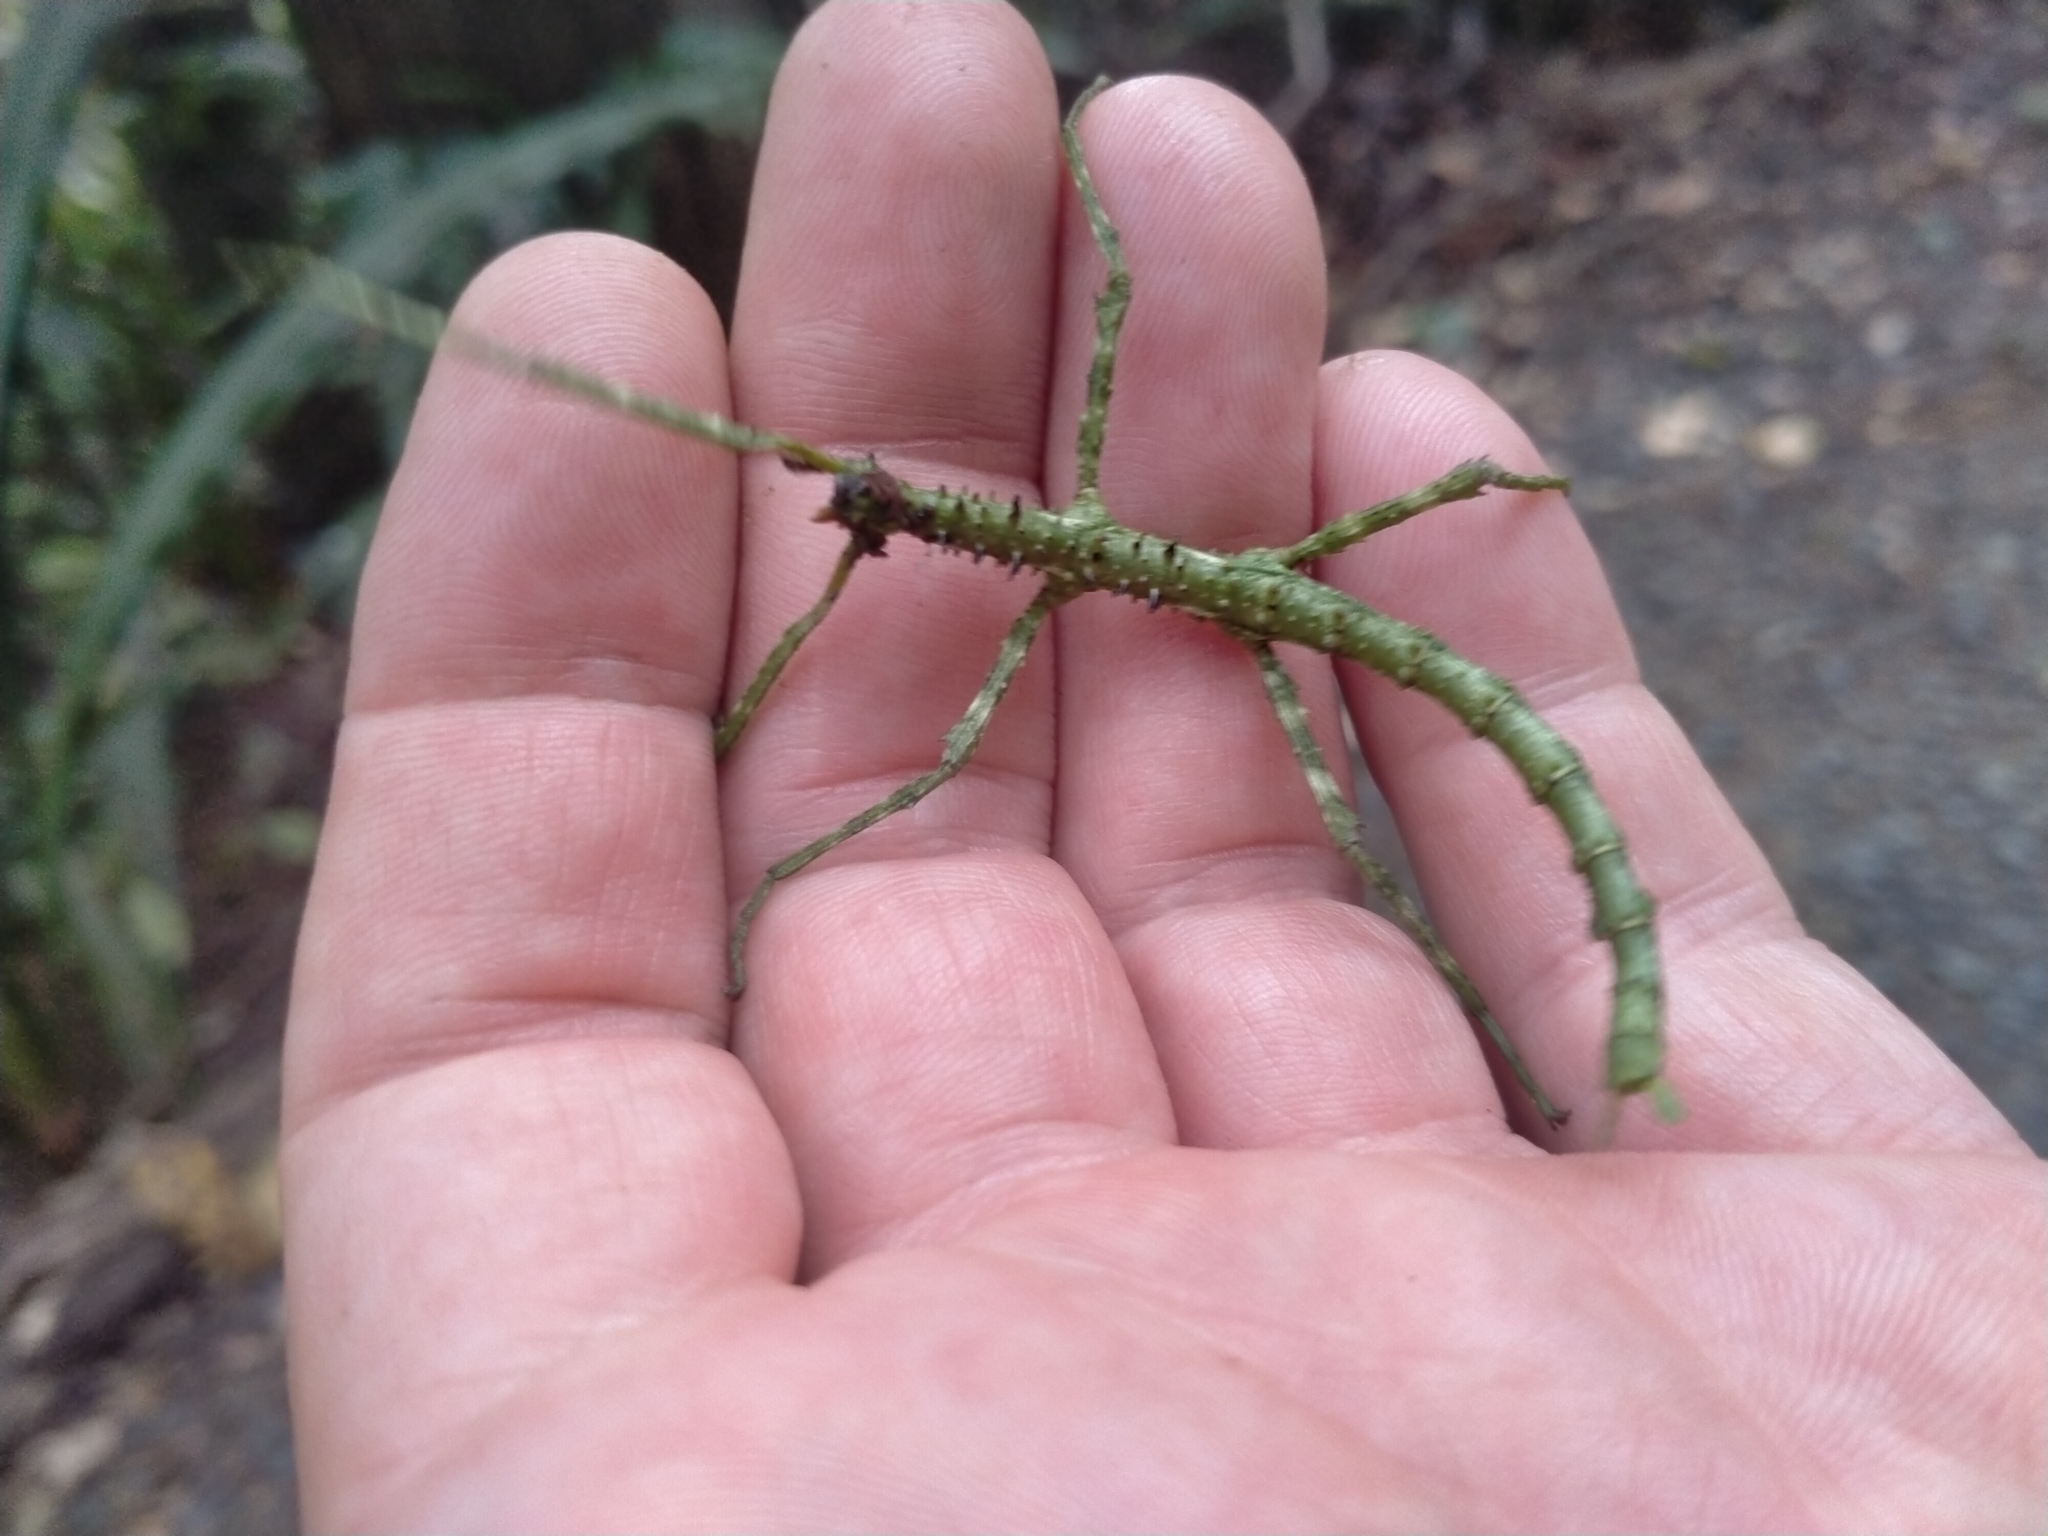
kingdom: Animalia
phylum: Arthropoda
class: Insecta
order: Phasmida
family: Phasmatidae
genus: Acanthoxyla
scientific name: Acanthoxyla prasina
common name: Black-spined stick insect
